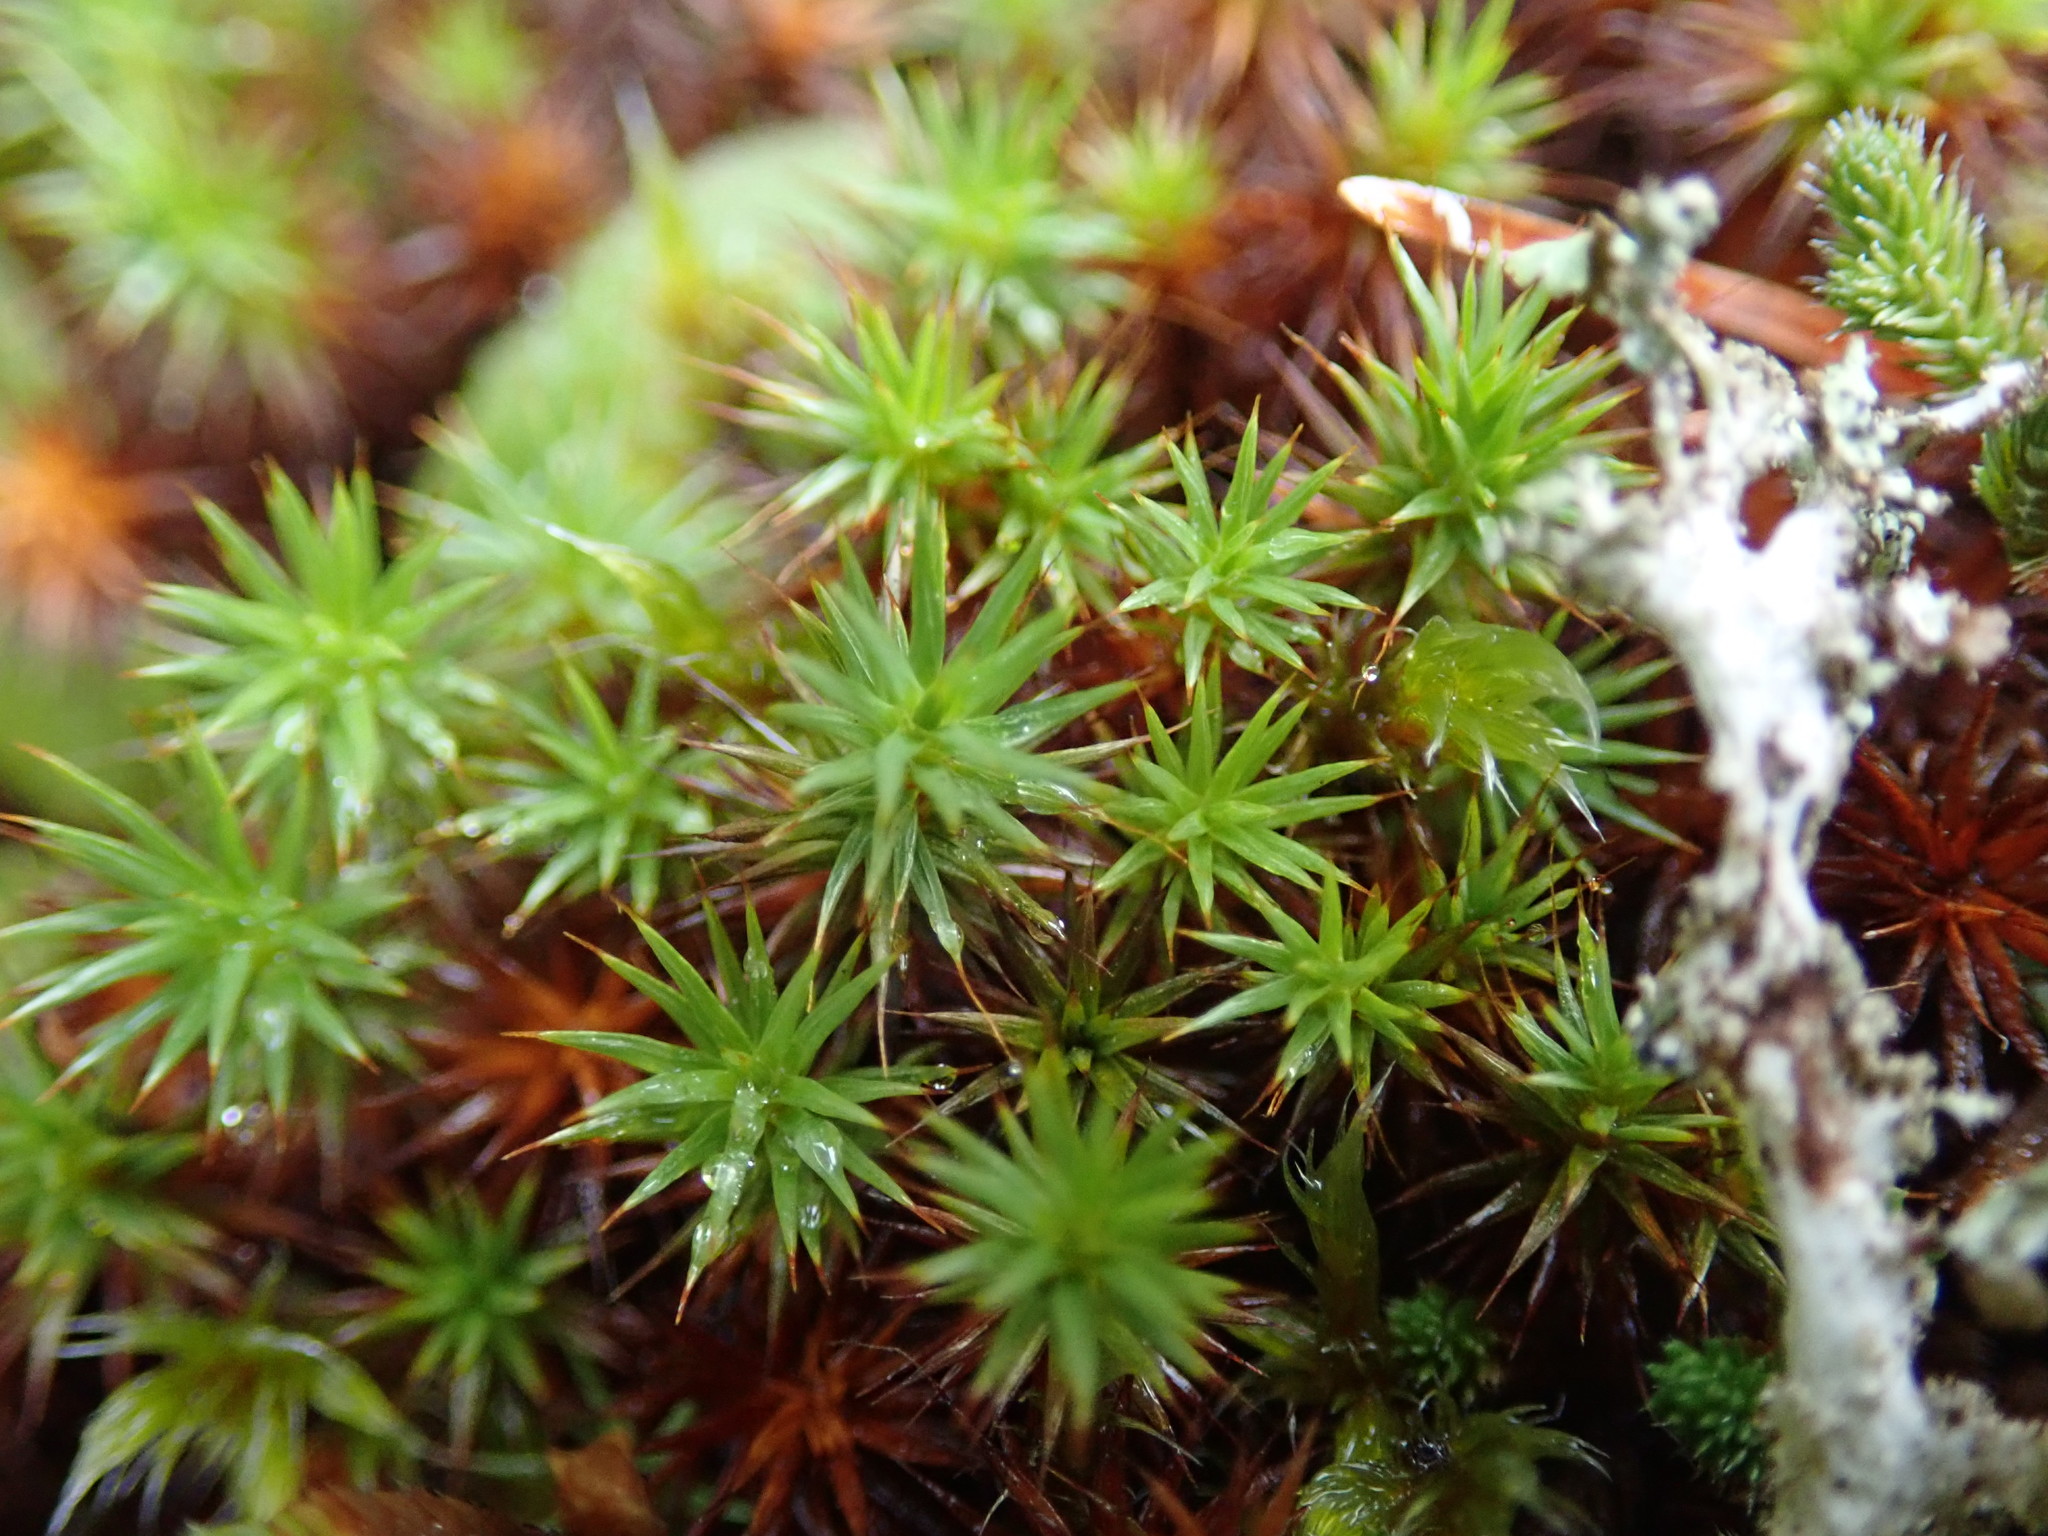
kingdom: Plantae
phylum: Bryophyta
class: Polytrichopsida
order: Polytrichales
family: Polytrichaceae
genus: Polytrichum
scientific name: Polytrichum juniperinum
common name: Juniper haircap moss
